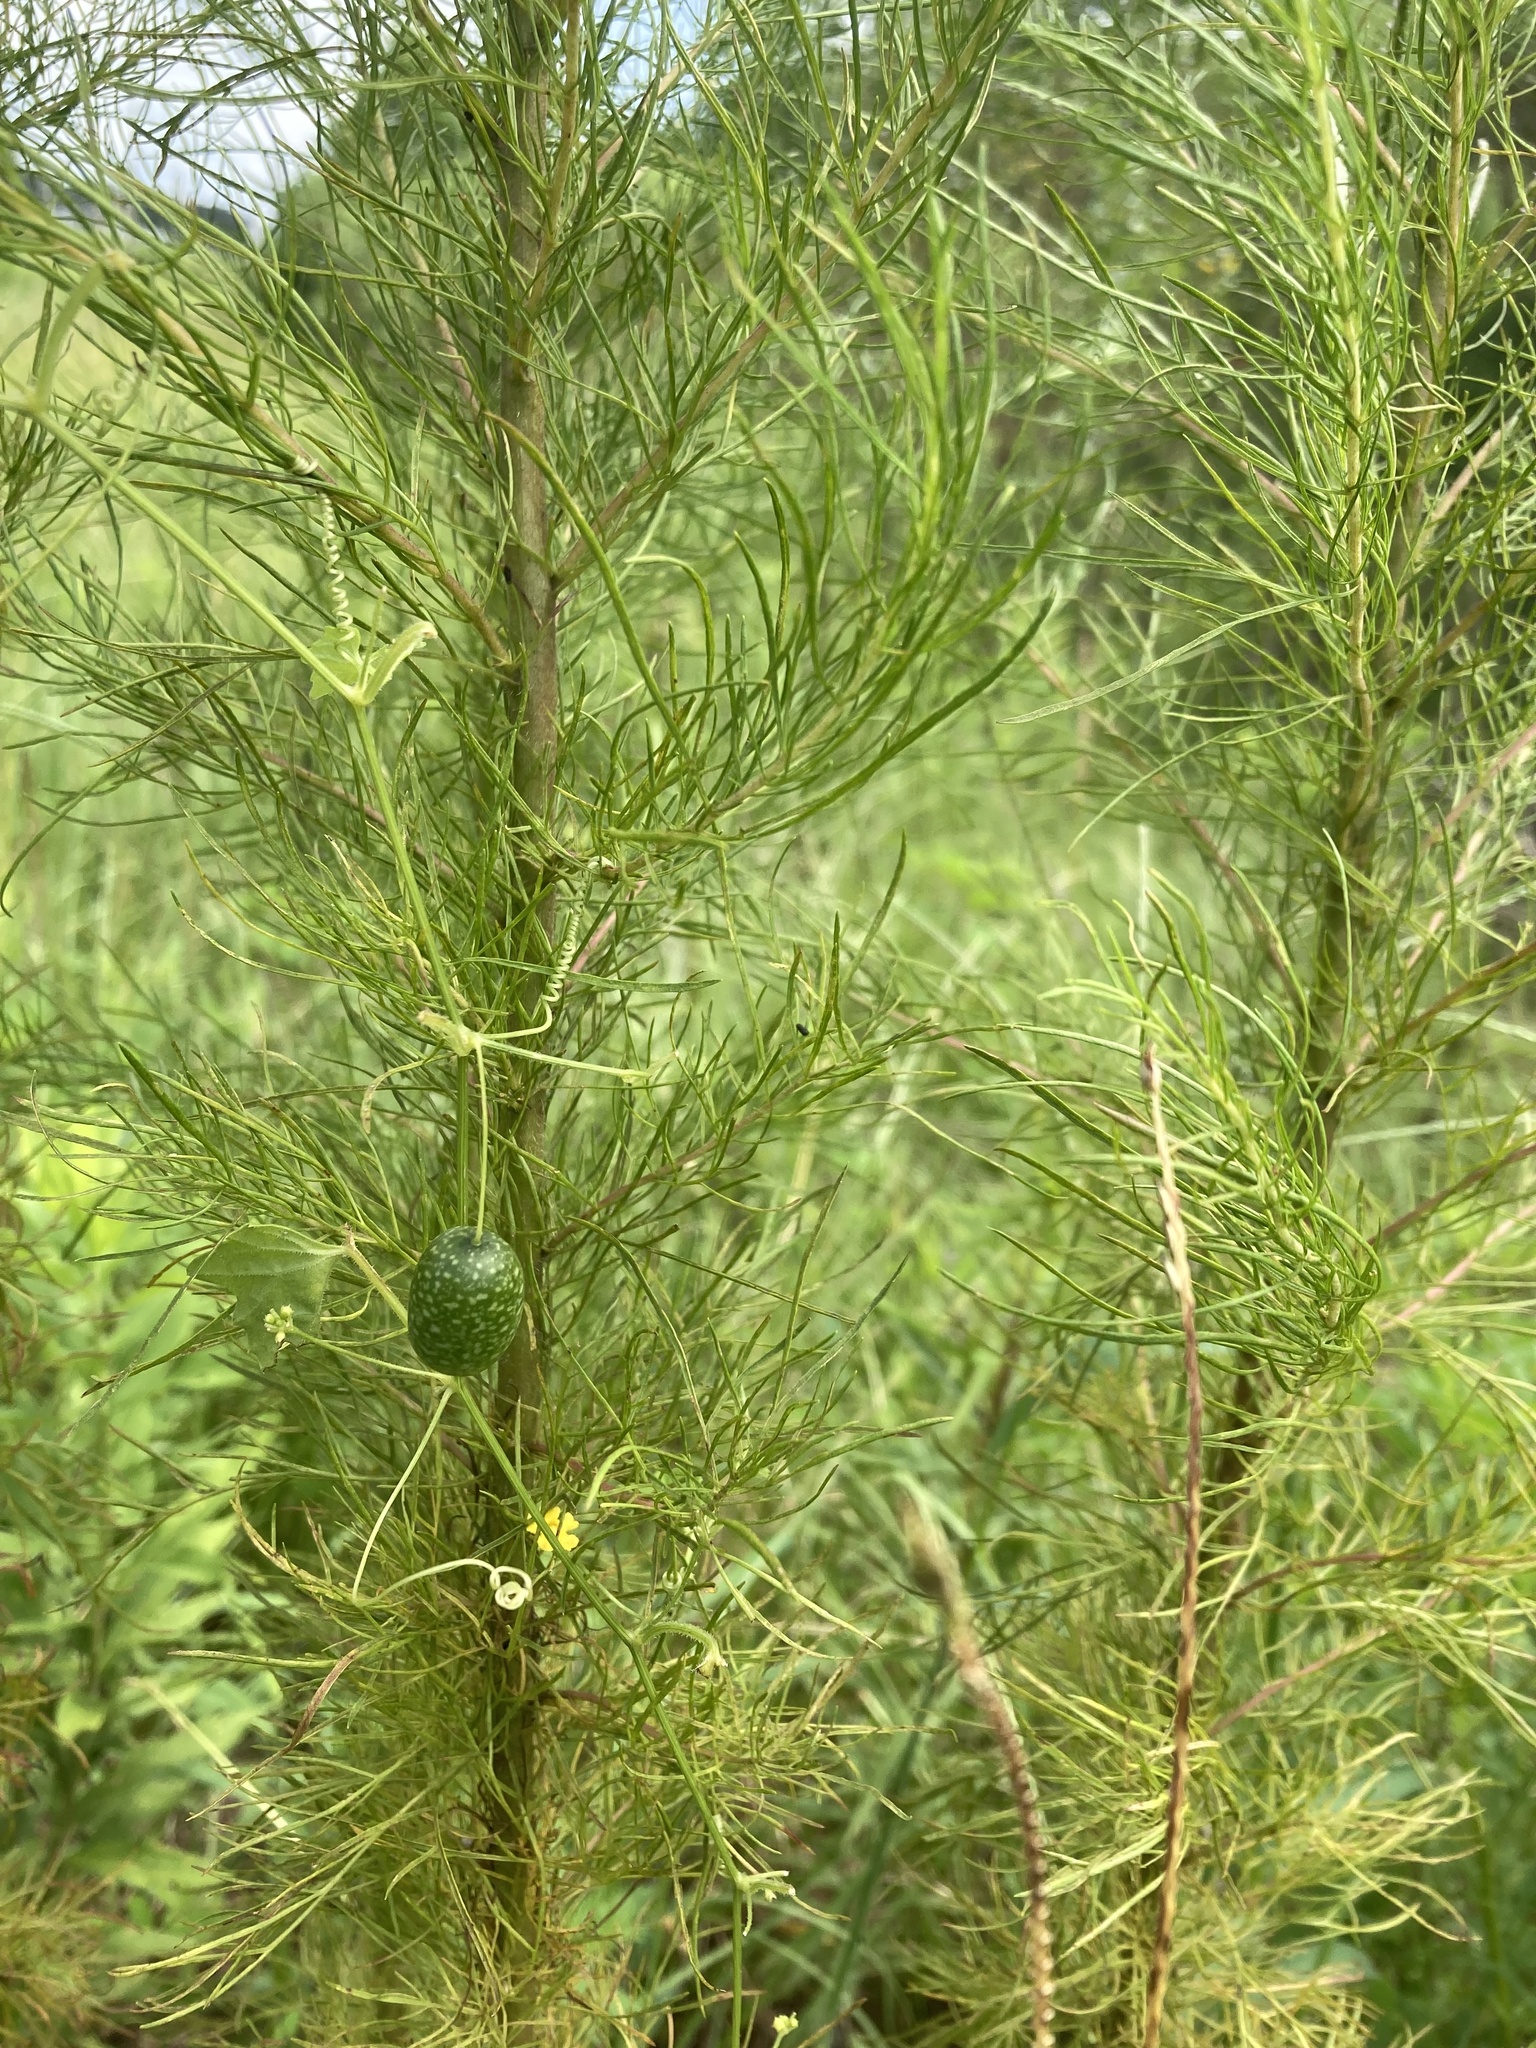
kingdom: Plantae
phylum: Tracheophyta
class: Magnoliopsida
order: Cucurbitales
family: Cucurbitaceae
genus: Melothria
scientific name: Melothria pendula
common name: Creeping-cucumber
